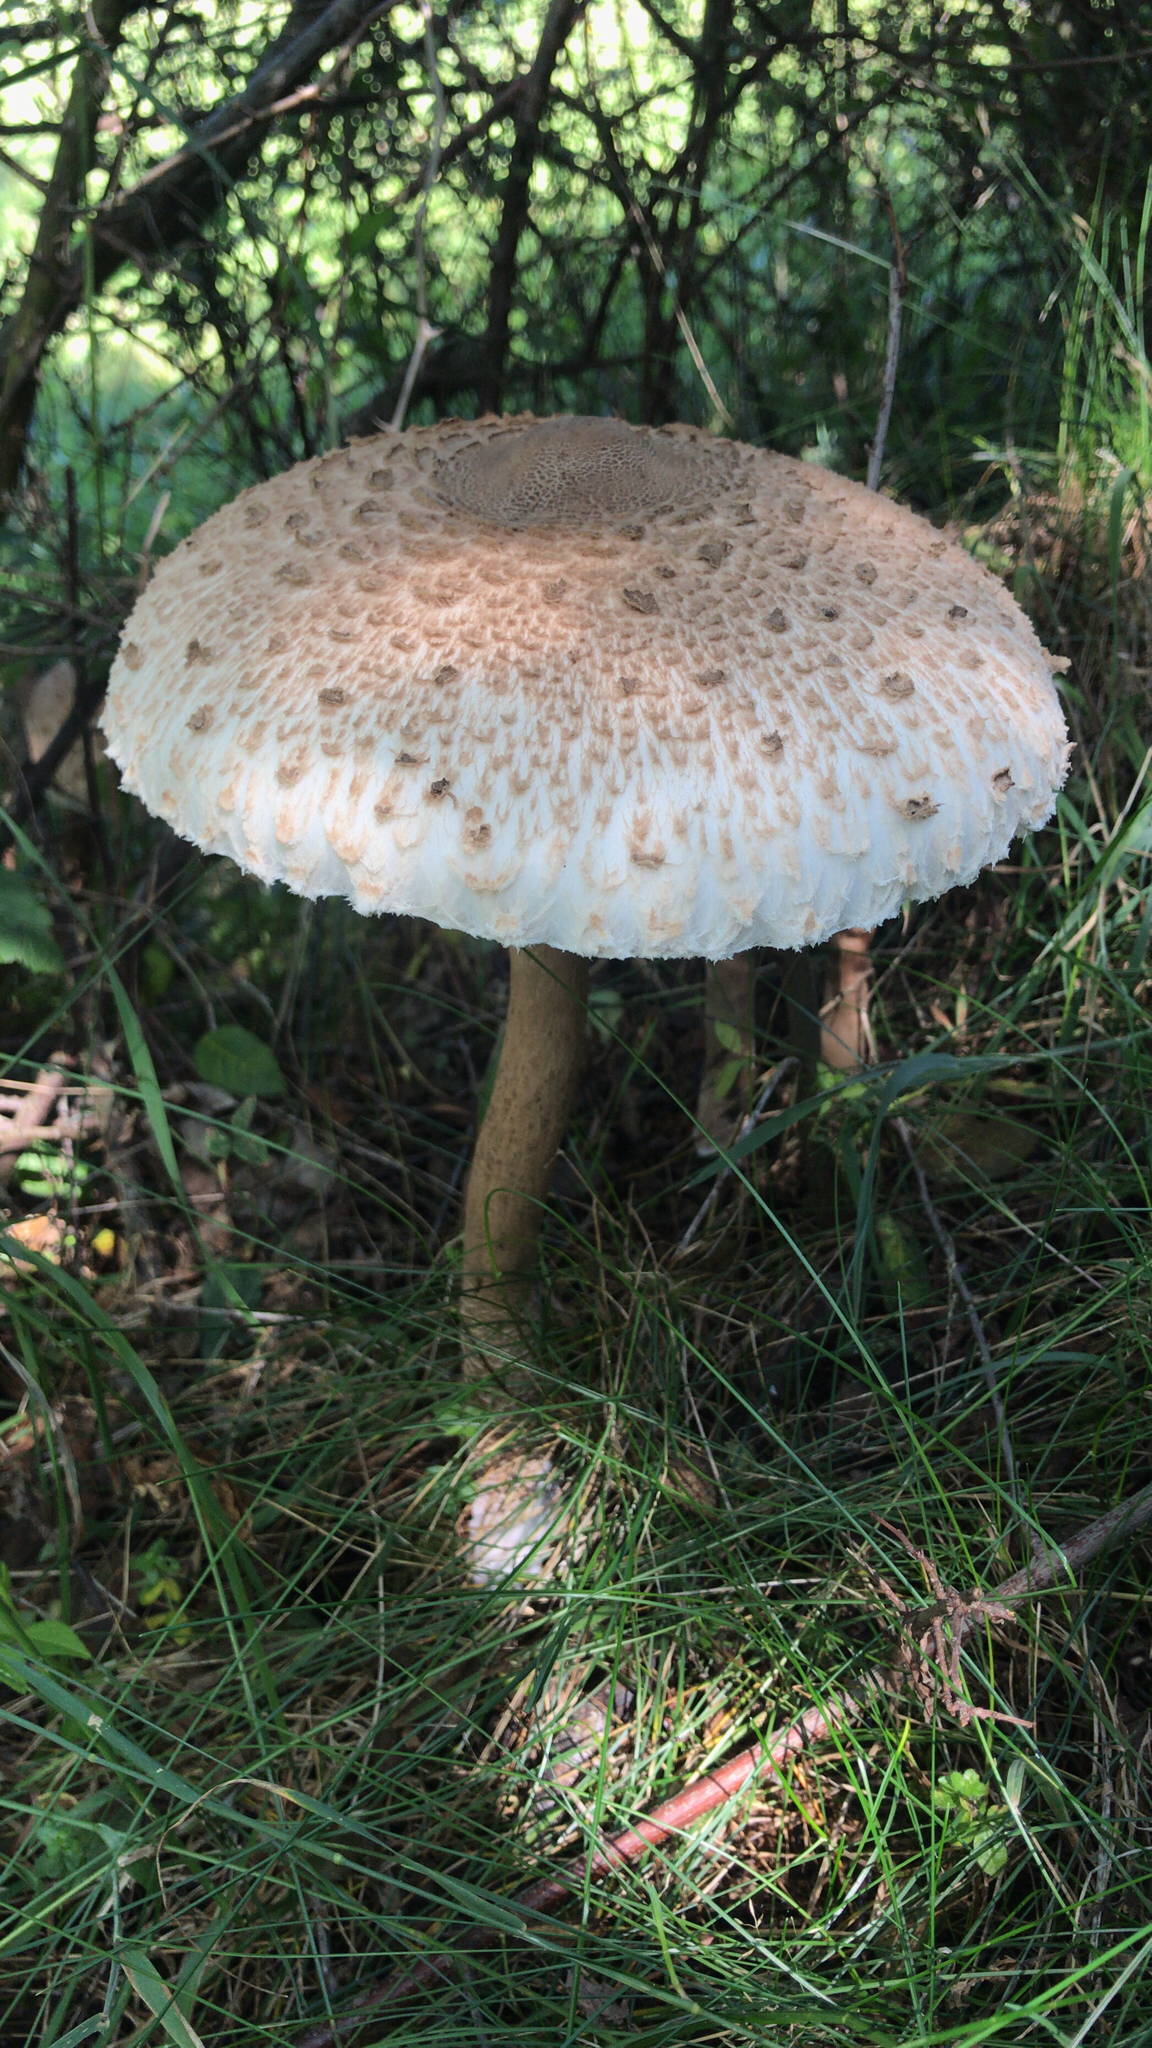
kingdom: Fungi
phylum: Basidiomycota
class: Agaricomycetes
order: Agaricales
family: Agaricaceae
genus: Macrolepiota
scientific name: Macrolepiota procera
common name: Parasol
